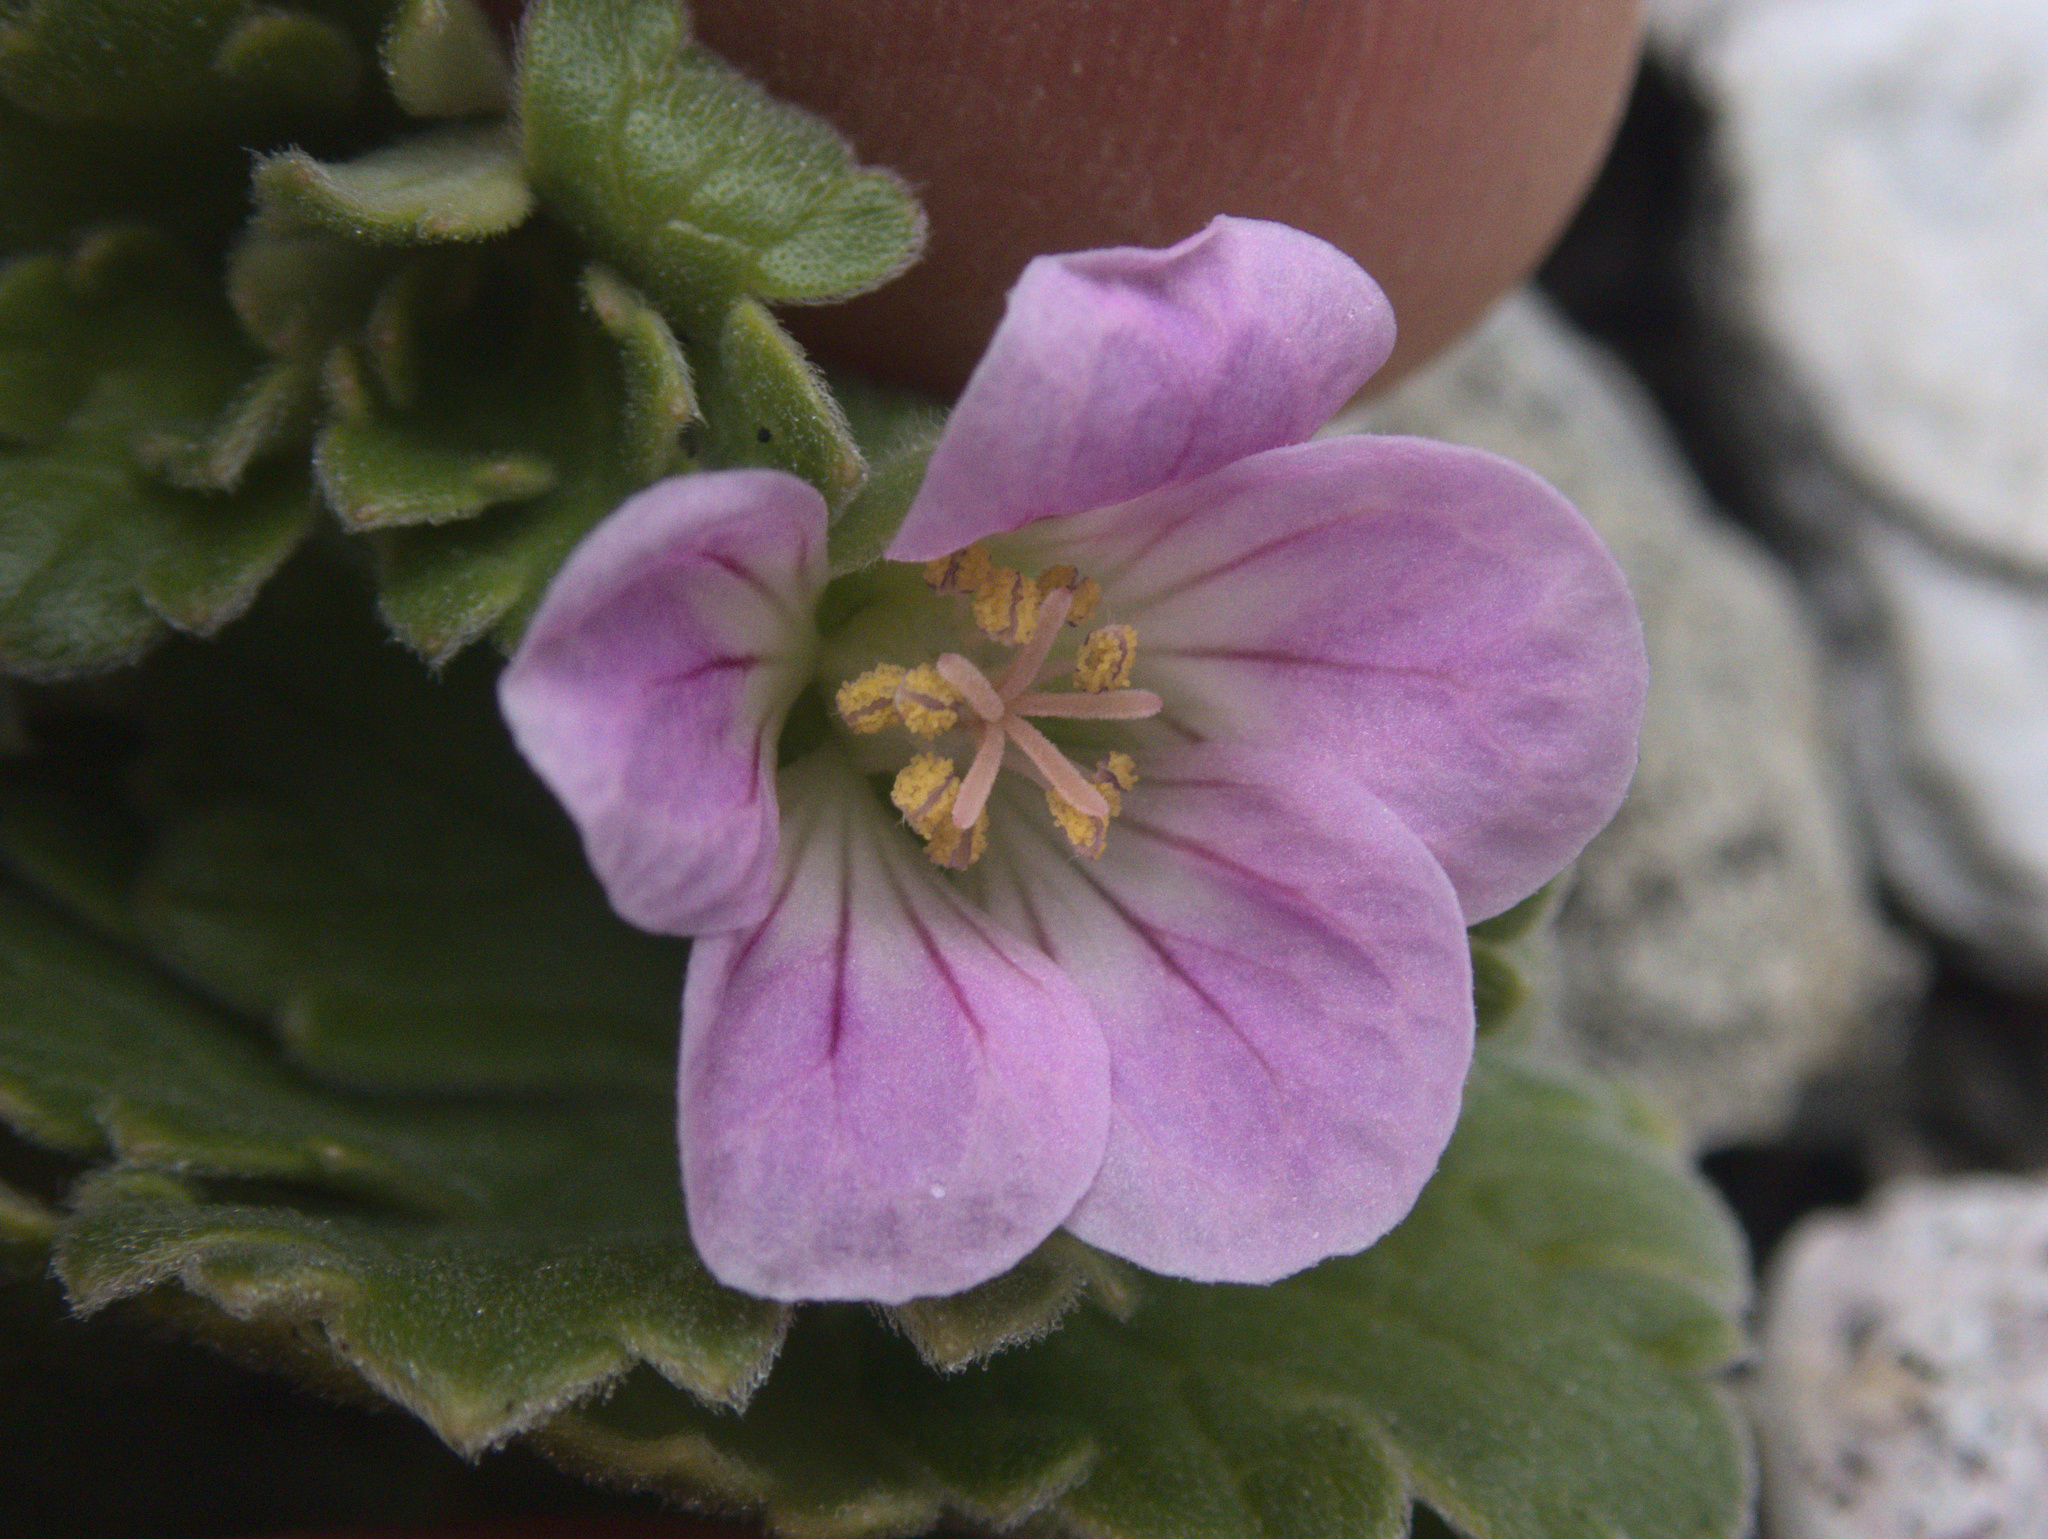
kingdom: Plantae
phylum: Tracheophyta
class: Magnoliopsida
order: Geraniales
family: Geraniaceae
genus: Geranium
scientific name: Geranium traversii
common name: Cranesbill
